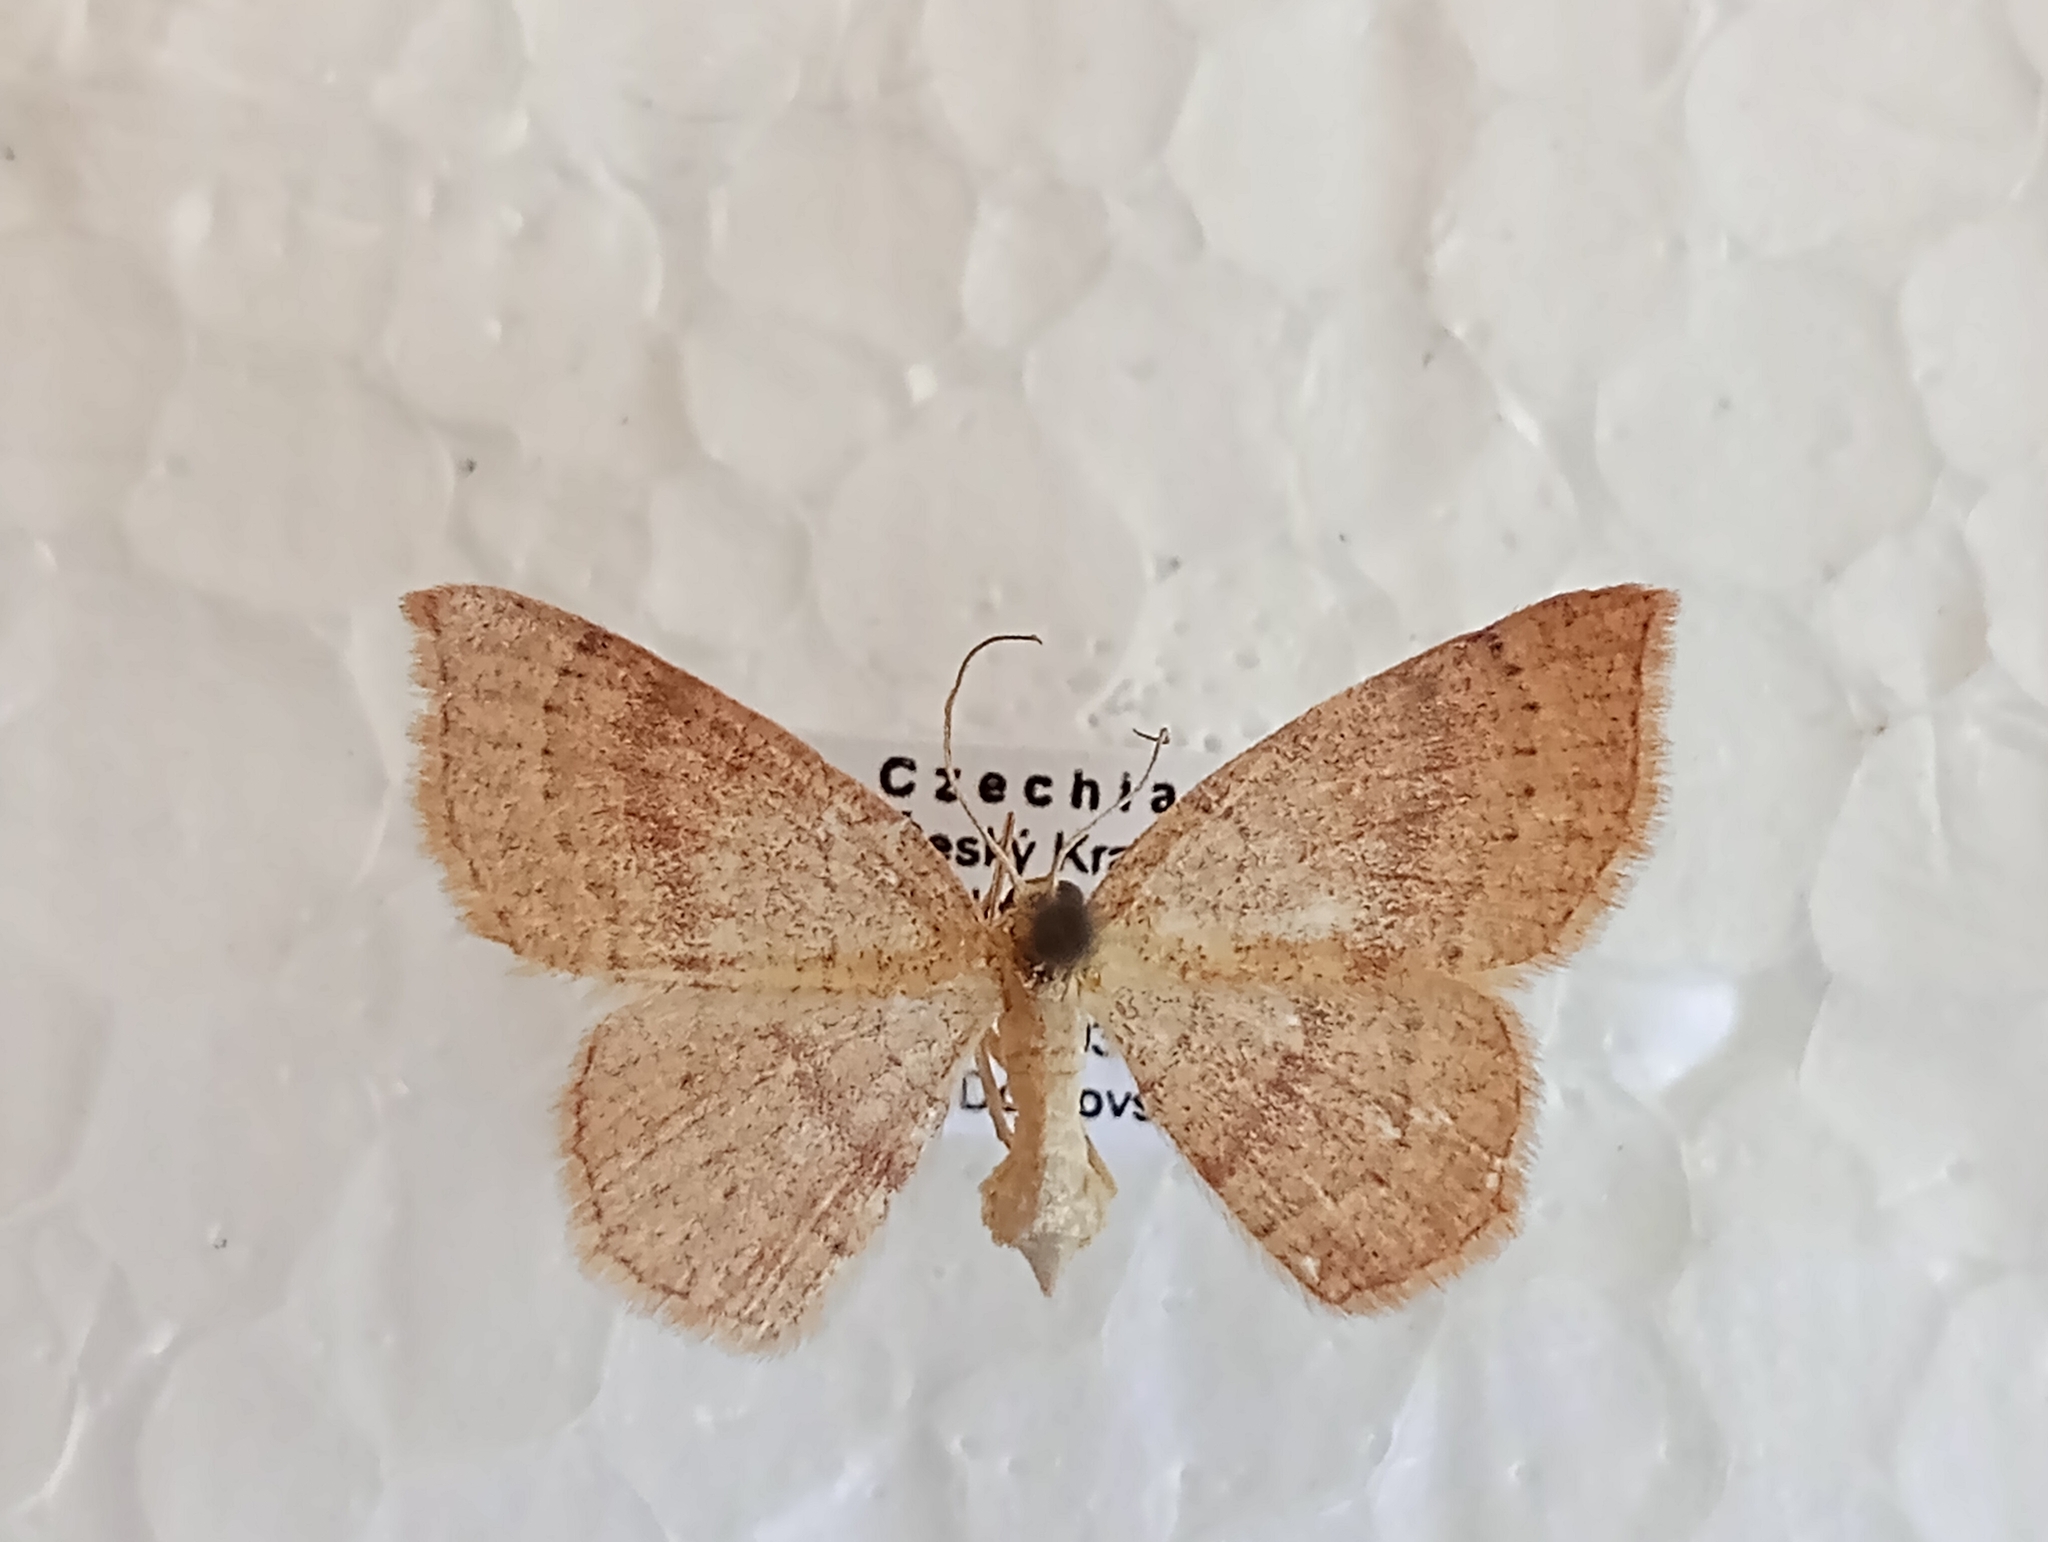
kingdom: Animalia
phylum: Arthropoda
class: Insecta
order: Lepidoptera
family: Geometridae
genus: Cyclophora
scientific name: Cyclophora linearia
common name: Clay triple-lines
